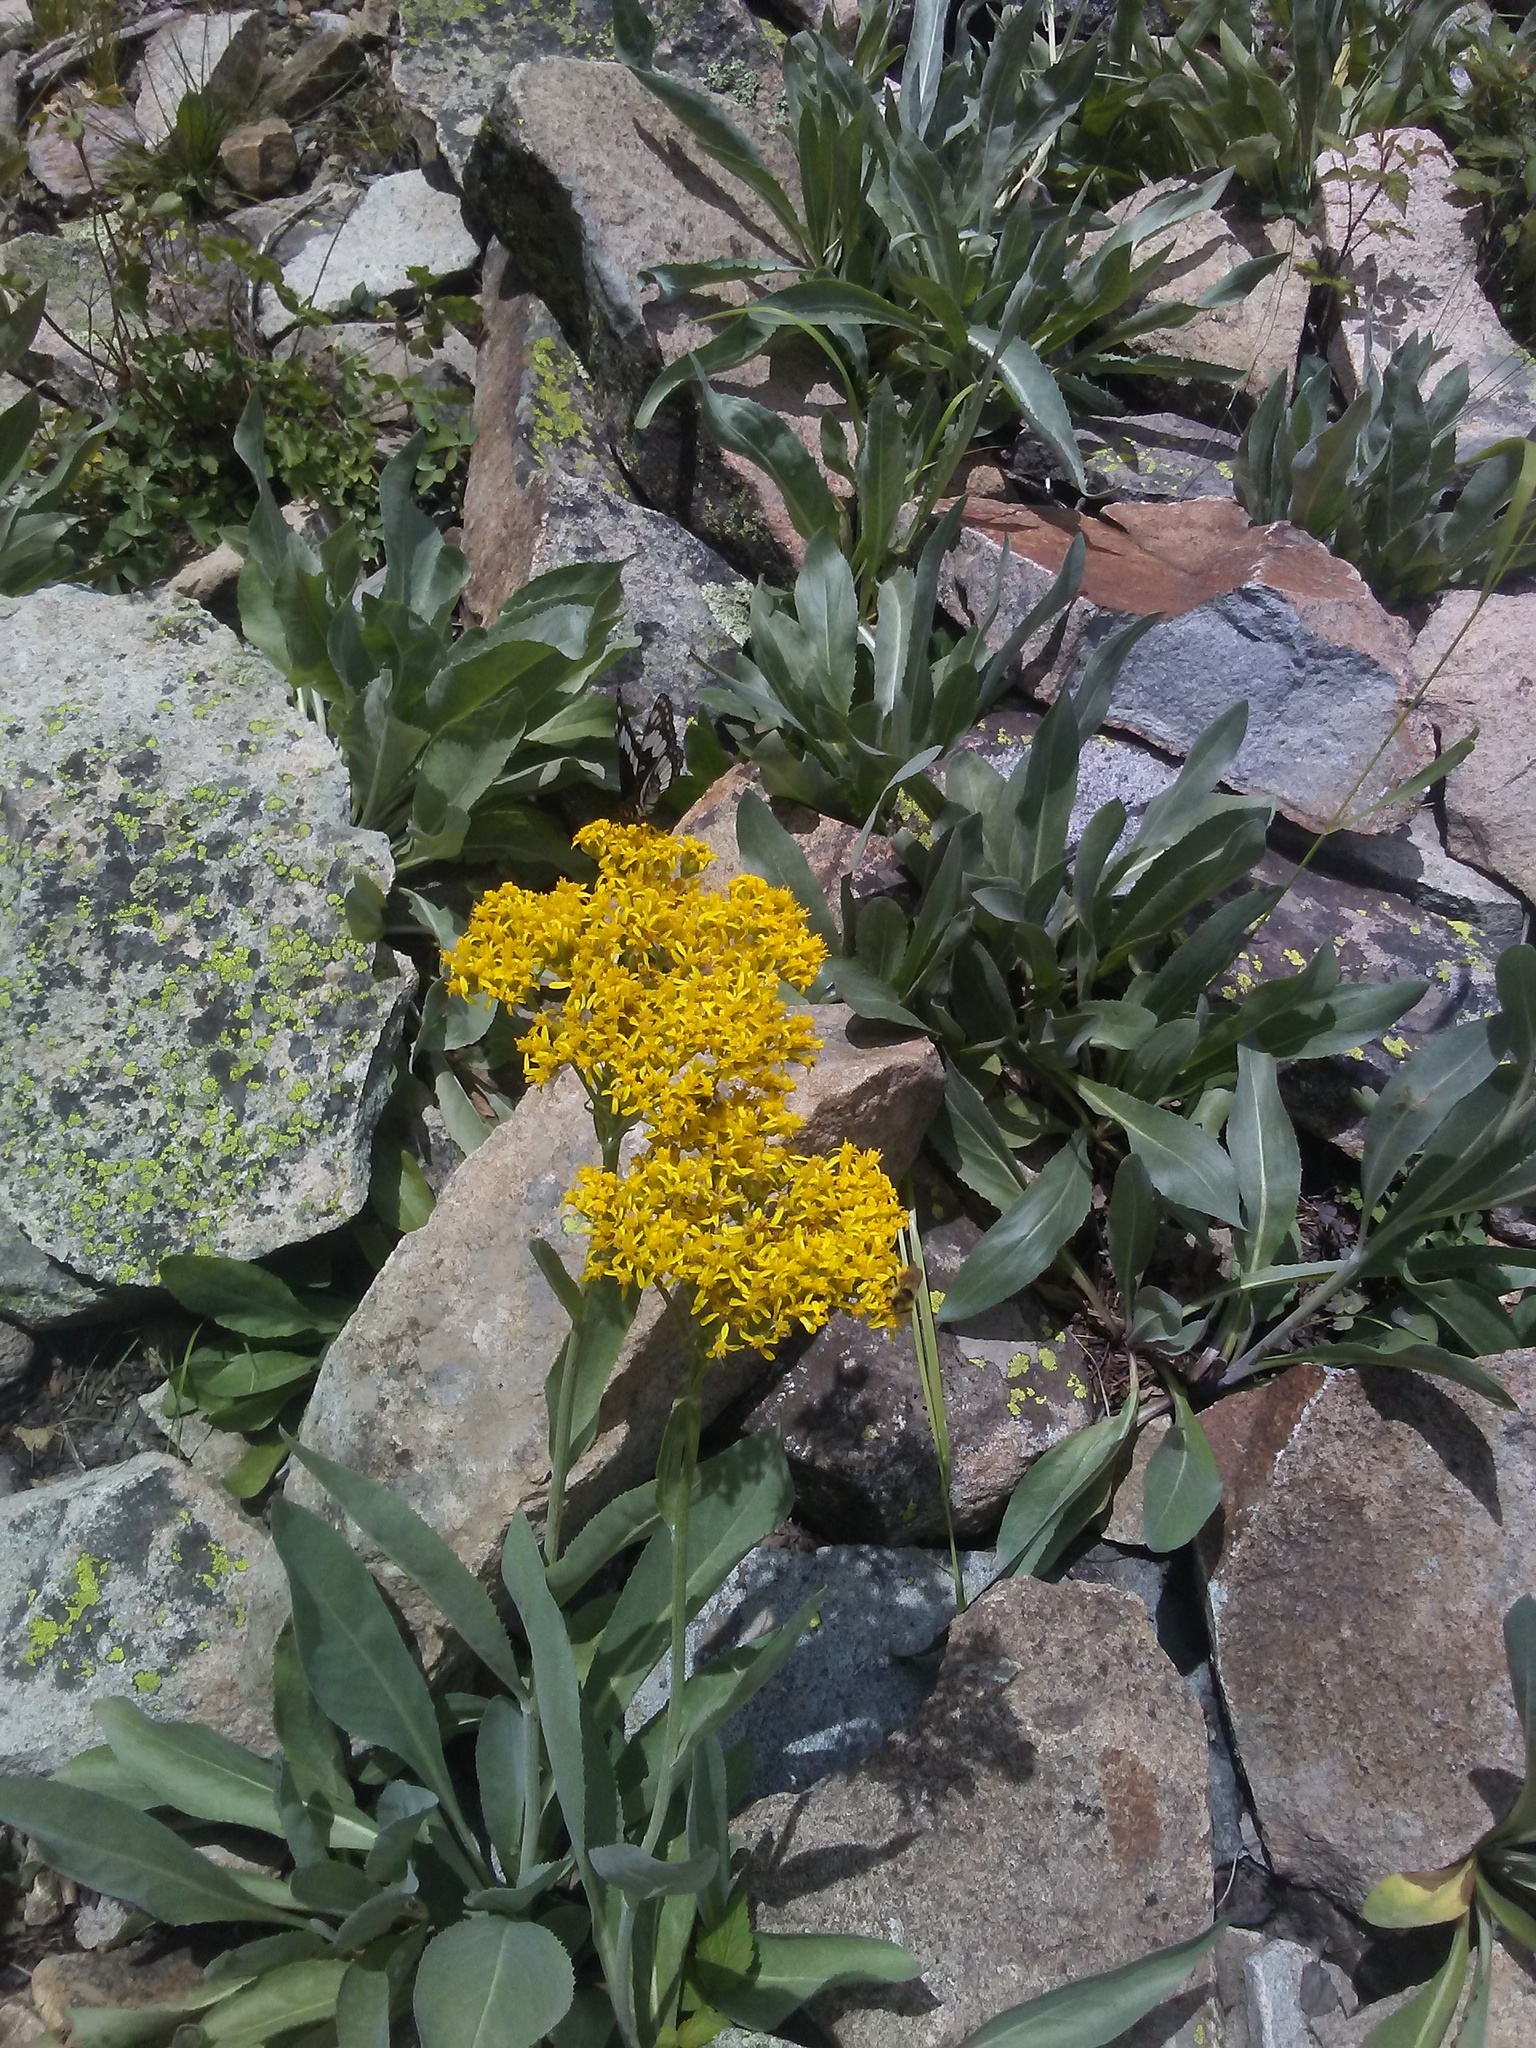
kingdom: Plantae
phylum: Tracheophyta
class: Magnoliopsida
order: Asterales
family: Asteraceae
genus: Senecio
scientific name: Senecio atratus
